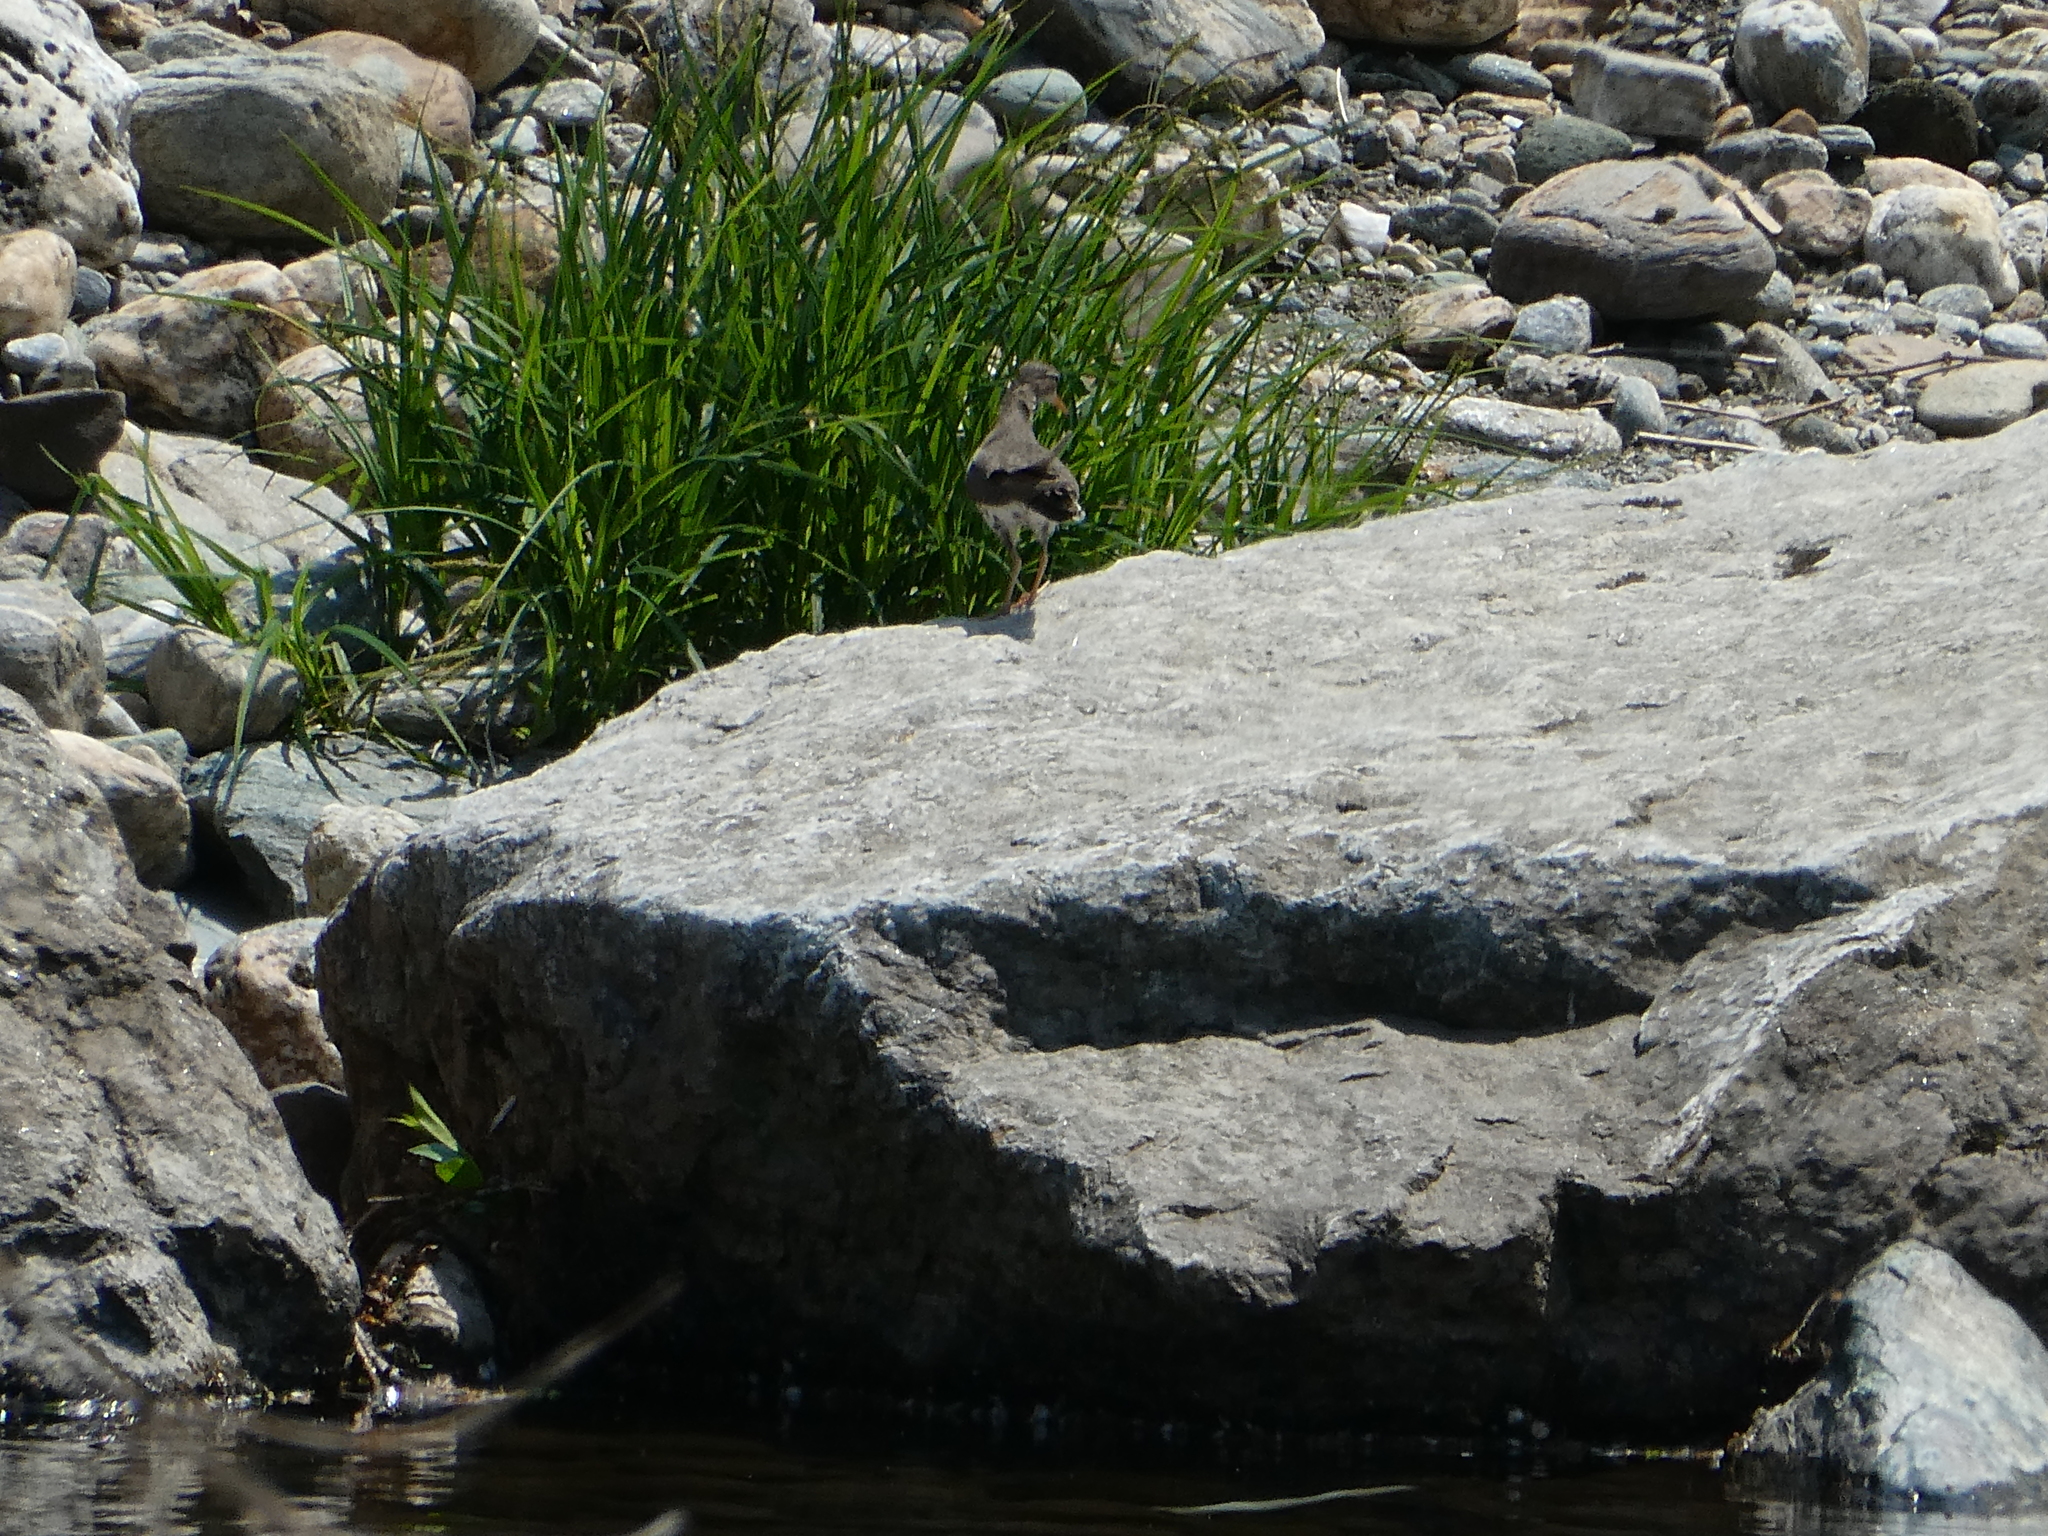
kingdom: Animalia
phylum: Chordata
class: Aves
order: Charadriiformes
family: Scolopacidae
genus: Actitis
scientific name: Actitis macularius
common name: Spotted sandpiper
